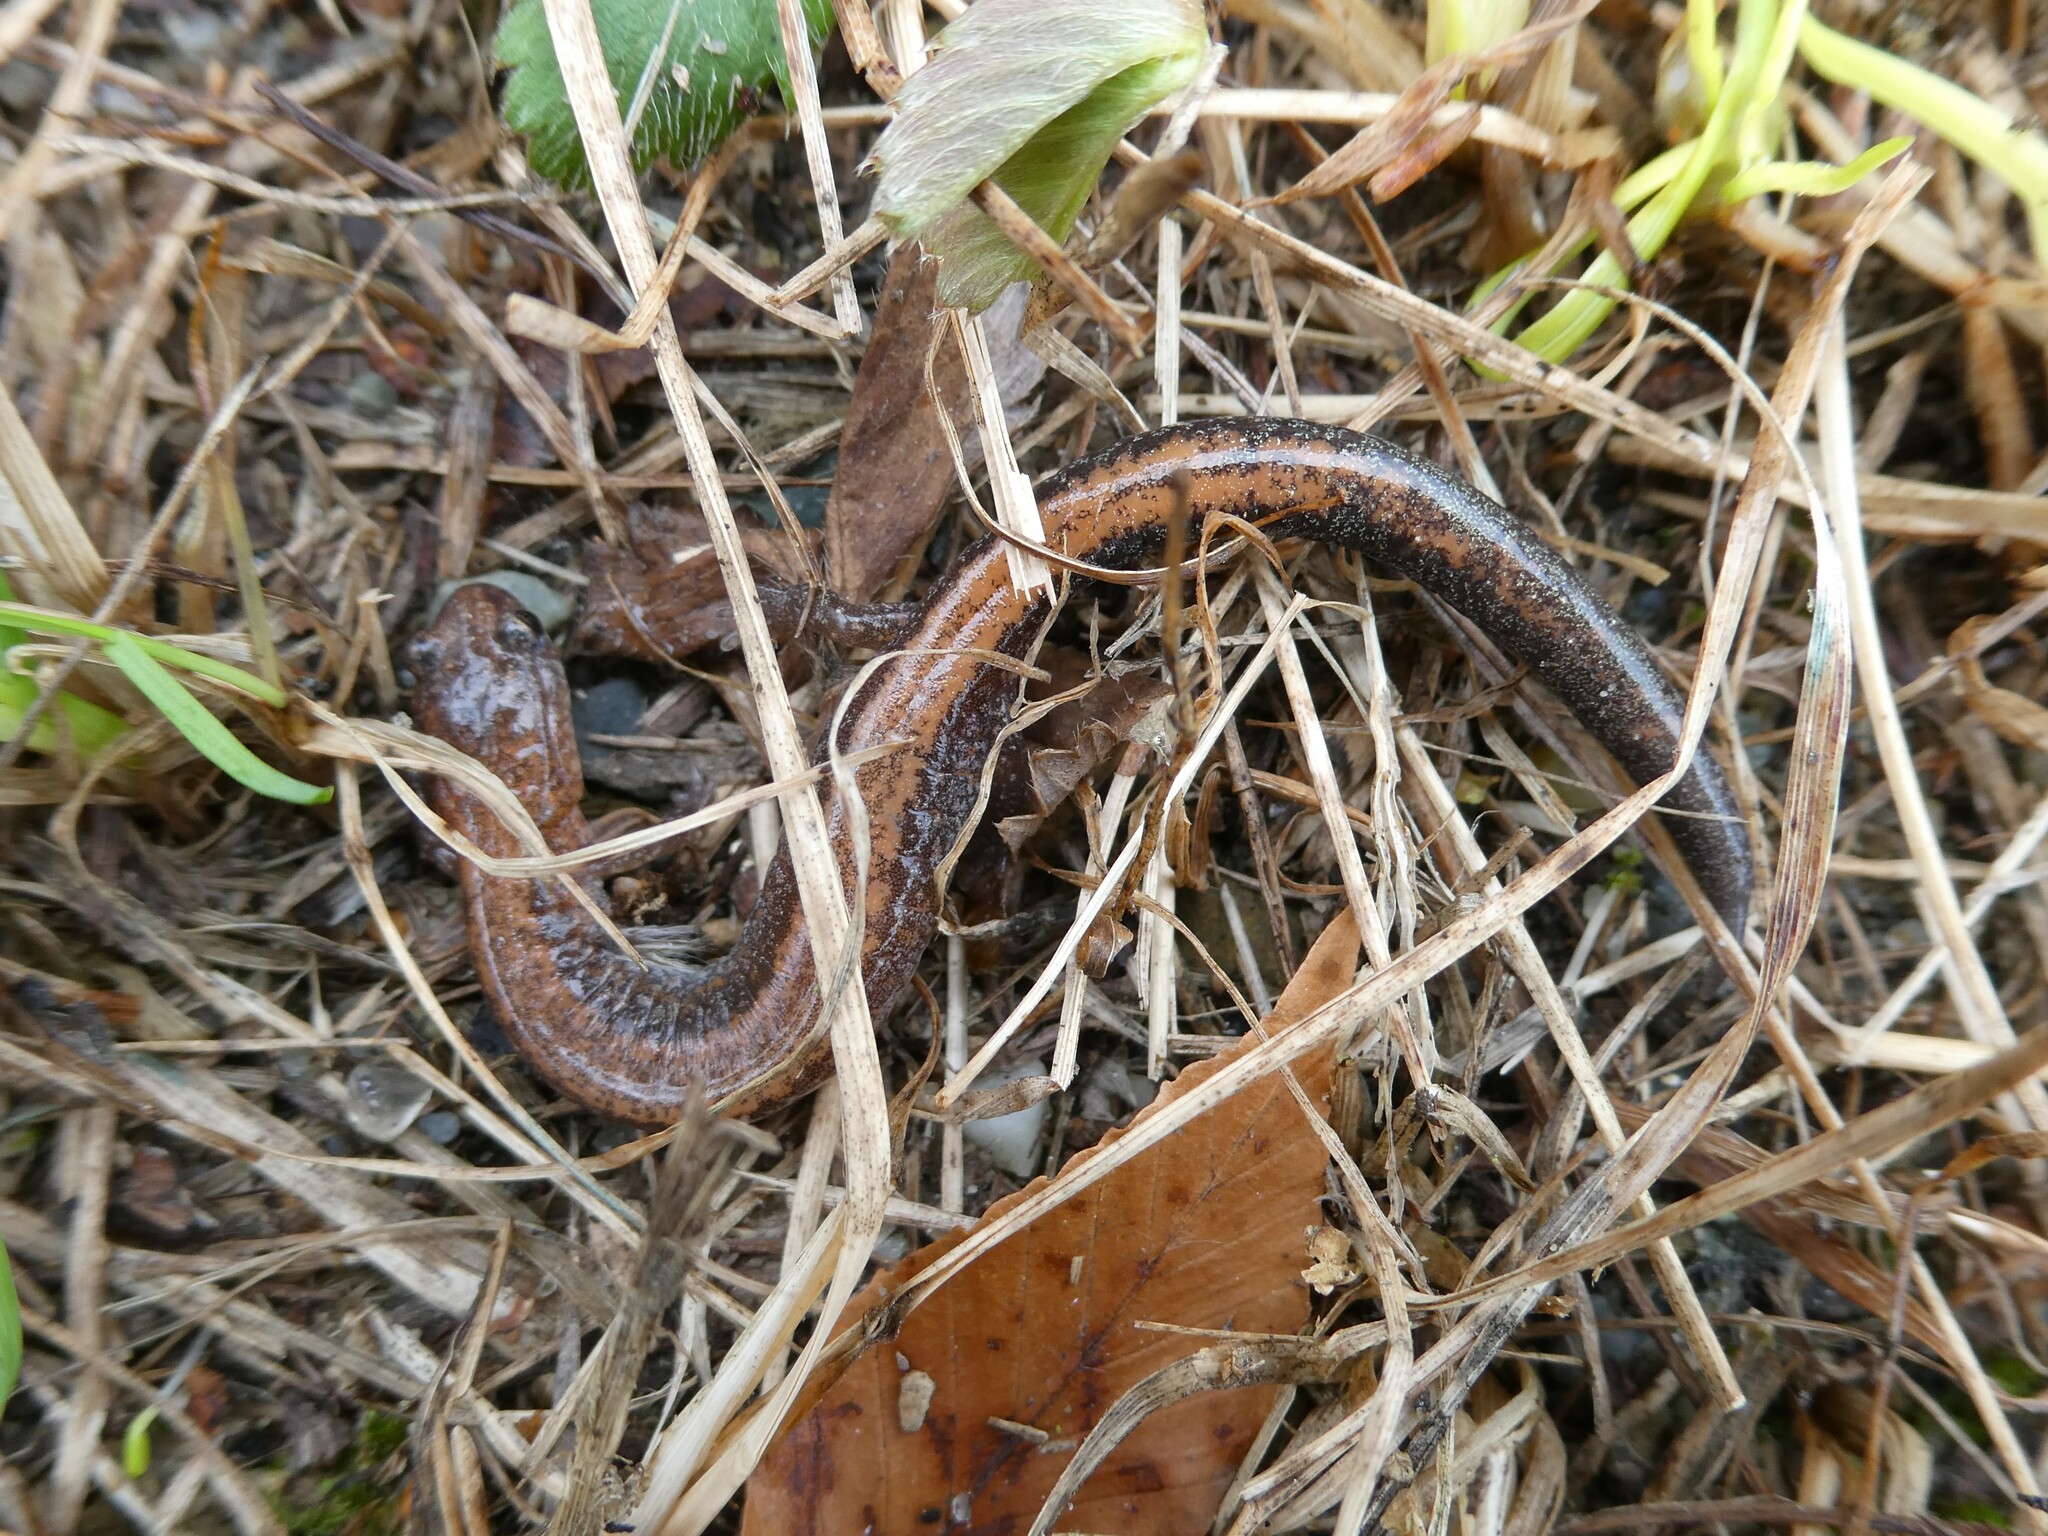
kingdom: Animalia
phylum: Chordata
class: Amphibia
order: Caudata
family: Plethodontidae
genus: Plethodon
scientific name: Plethodon cinereus
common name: Redback salamander
